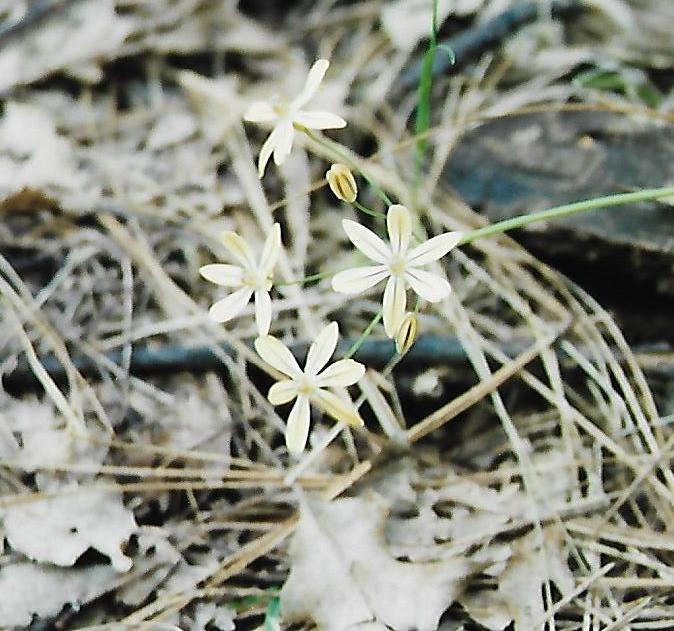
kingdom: Plantae
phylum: Tracheophyta
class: Liliopsida
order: Asparagales
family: Asparagaceae
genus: Triteleia
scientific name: Triteleia ixioides
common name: Yellow-brodiaea
